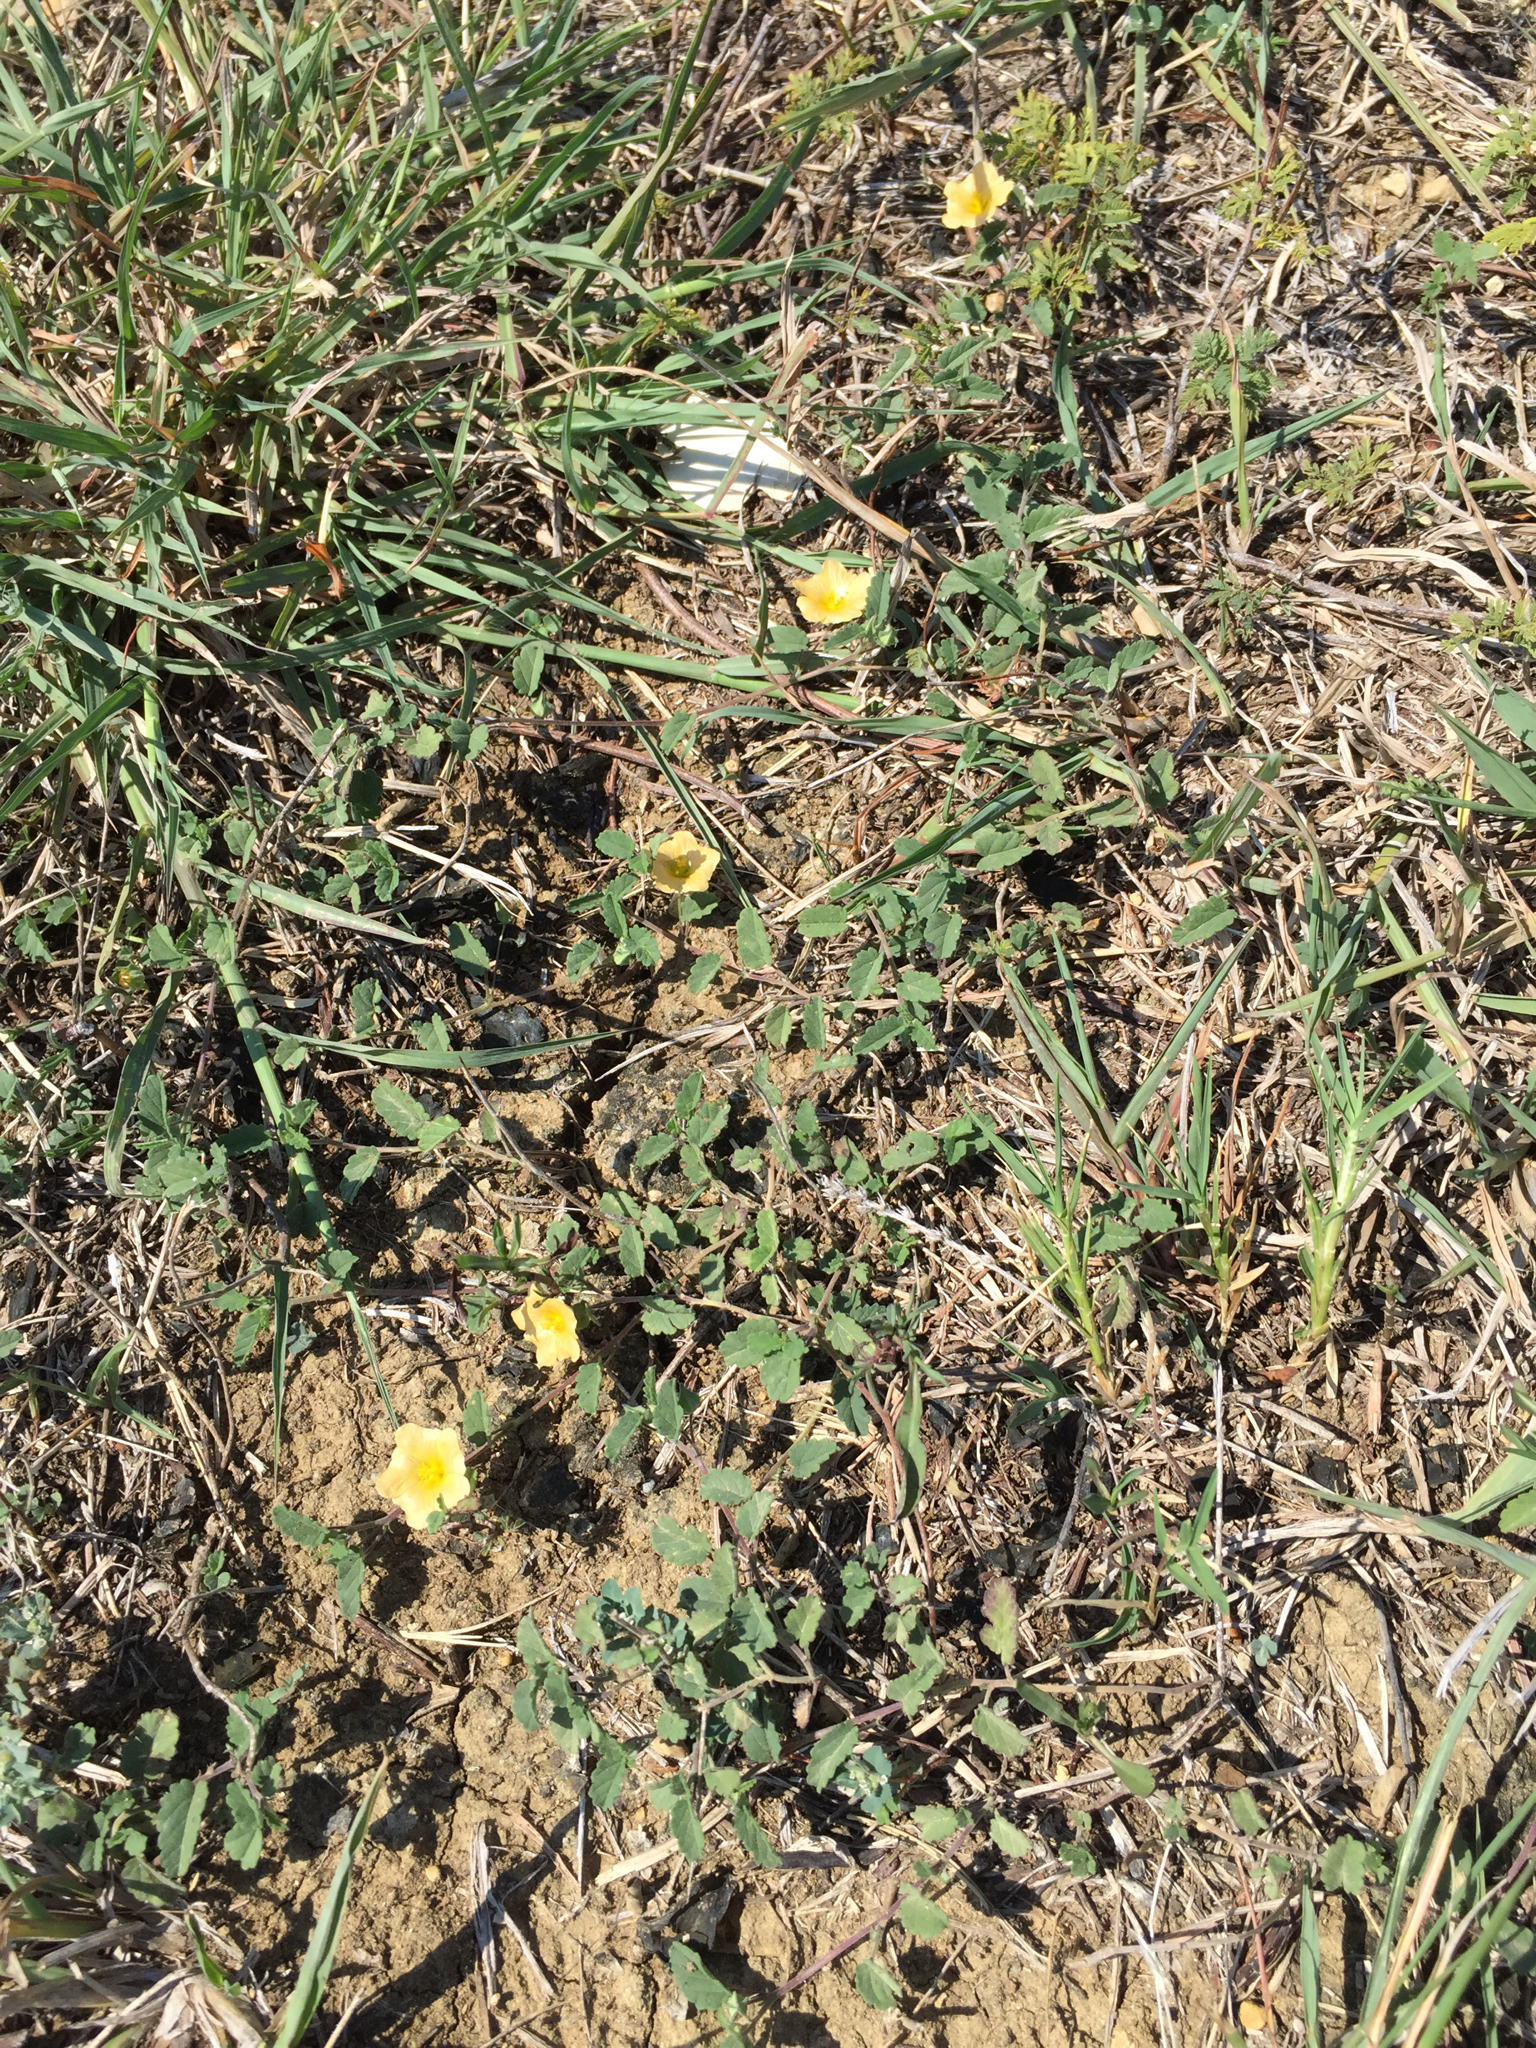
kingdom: Plantae
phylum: Tracheophyta
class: Magnoliopsida
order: Malvales
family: Malvaceae
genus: Sida
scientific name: Sida abutilifolia
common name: Spreading fanpetals
